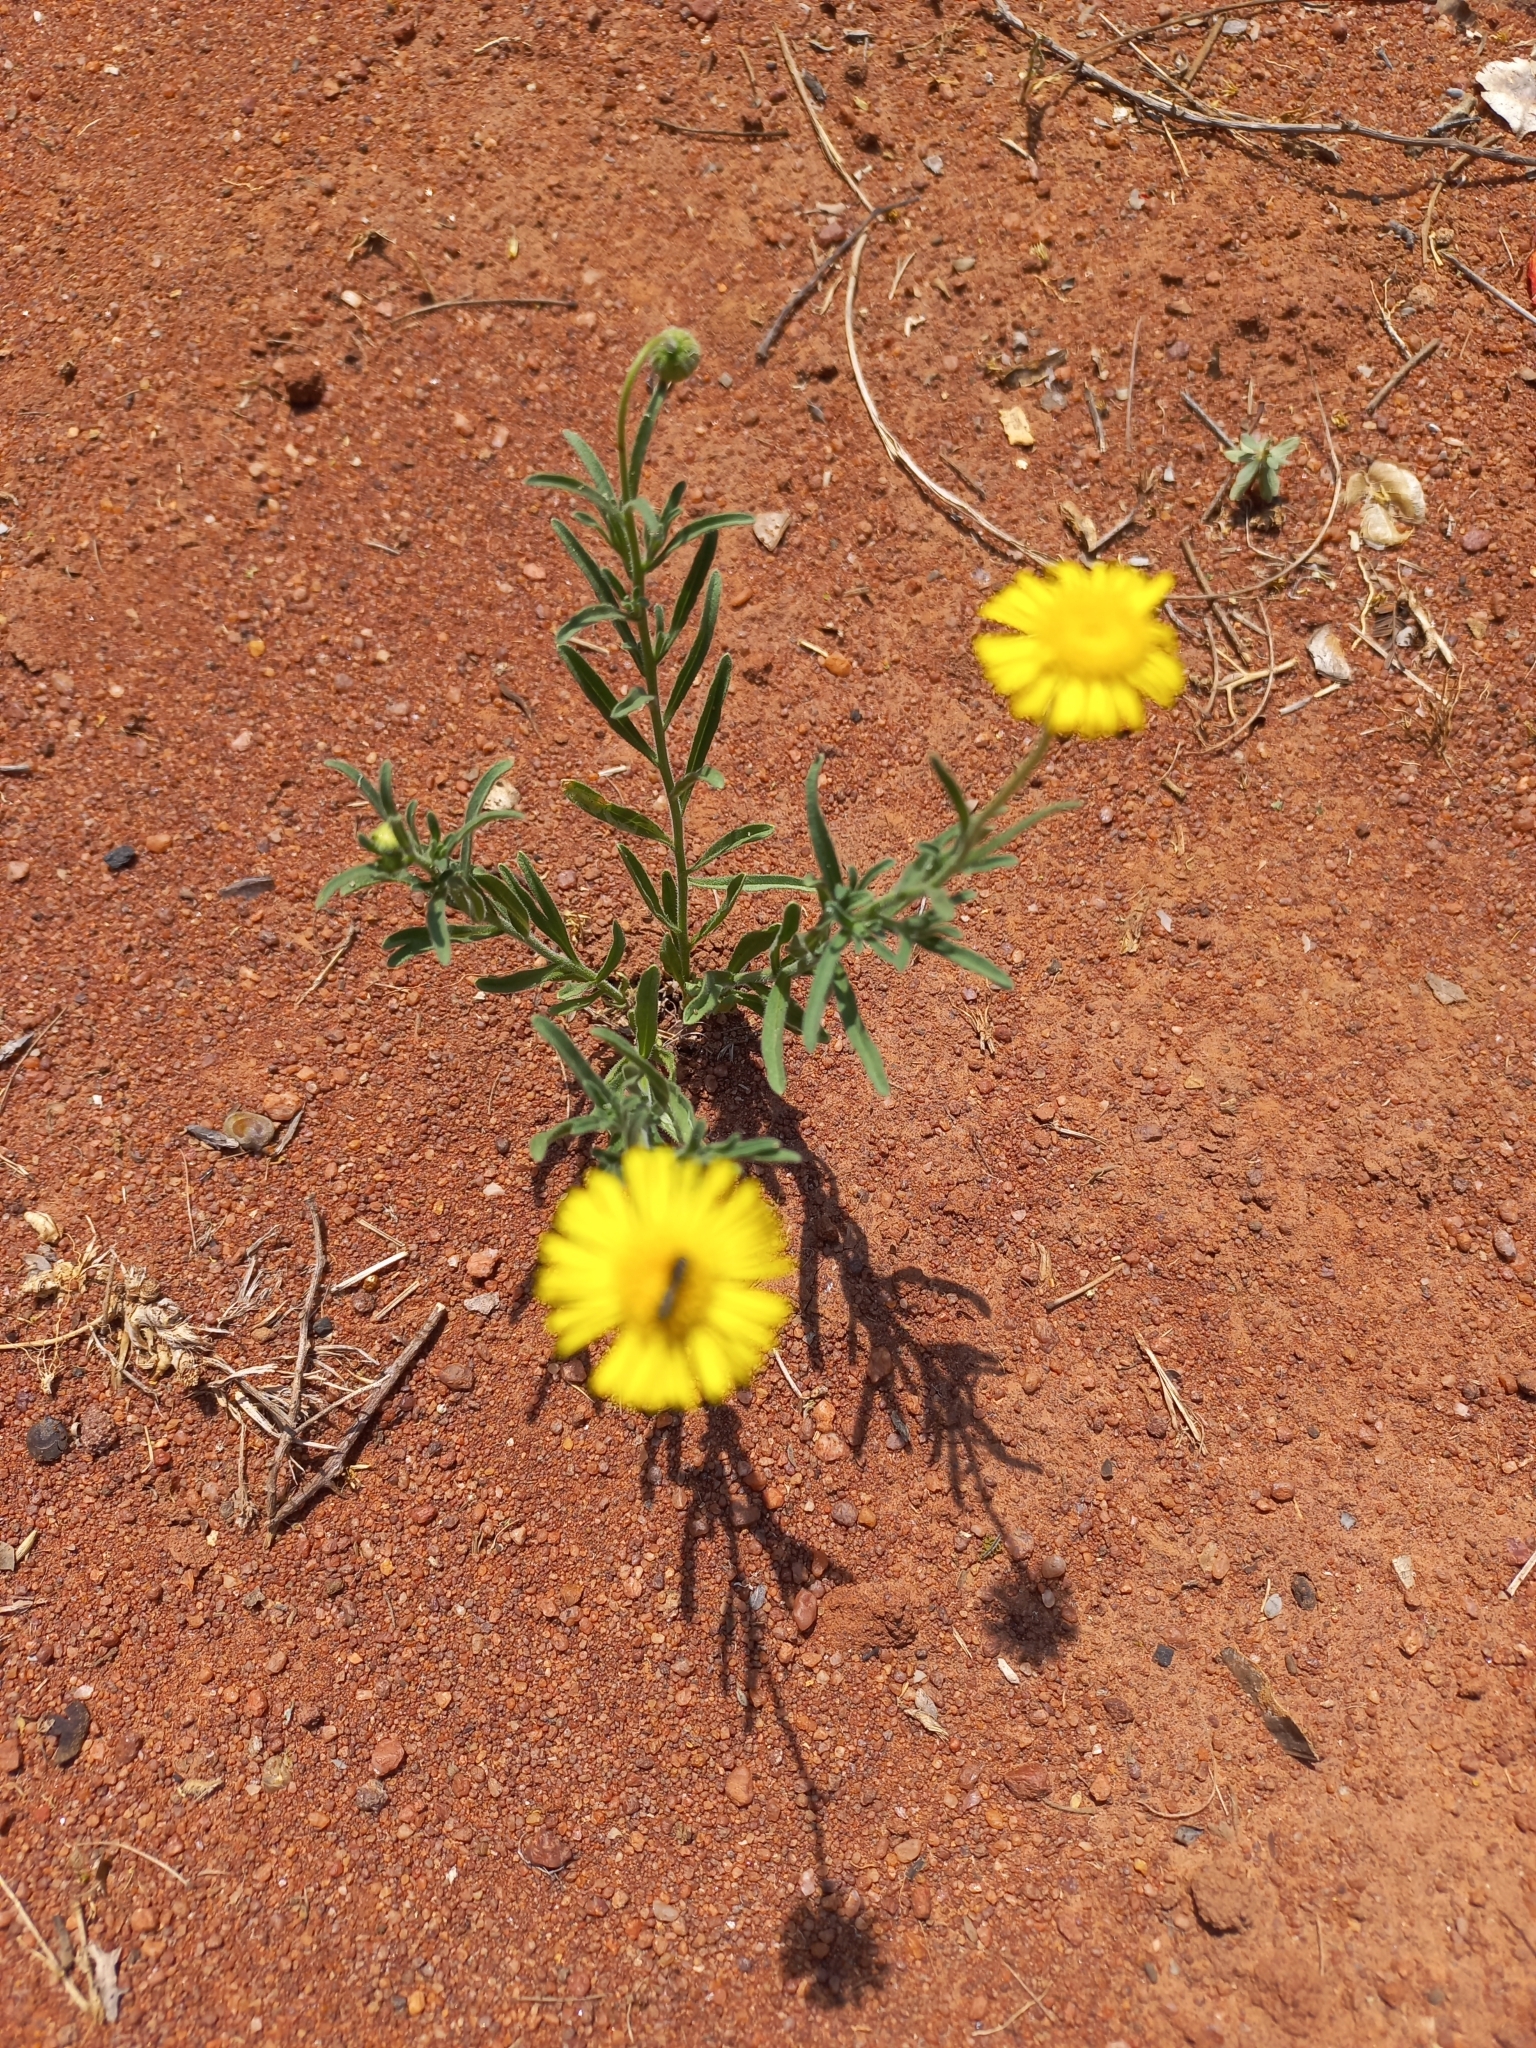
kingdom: Plantae
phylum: Tracheophyta
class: Magnoliopsida
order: Asterales
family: Asteraceae
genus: Felicia
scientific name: Felicia mossamedensis
